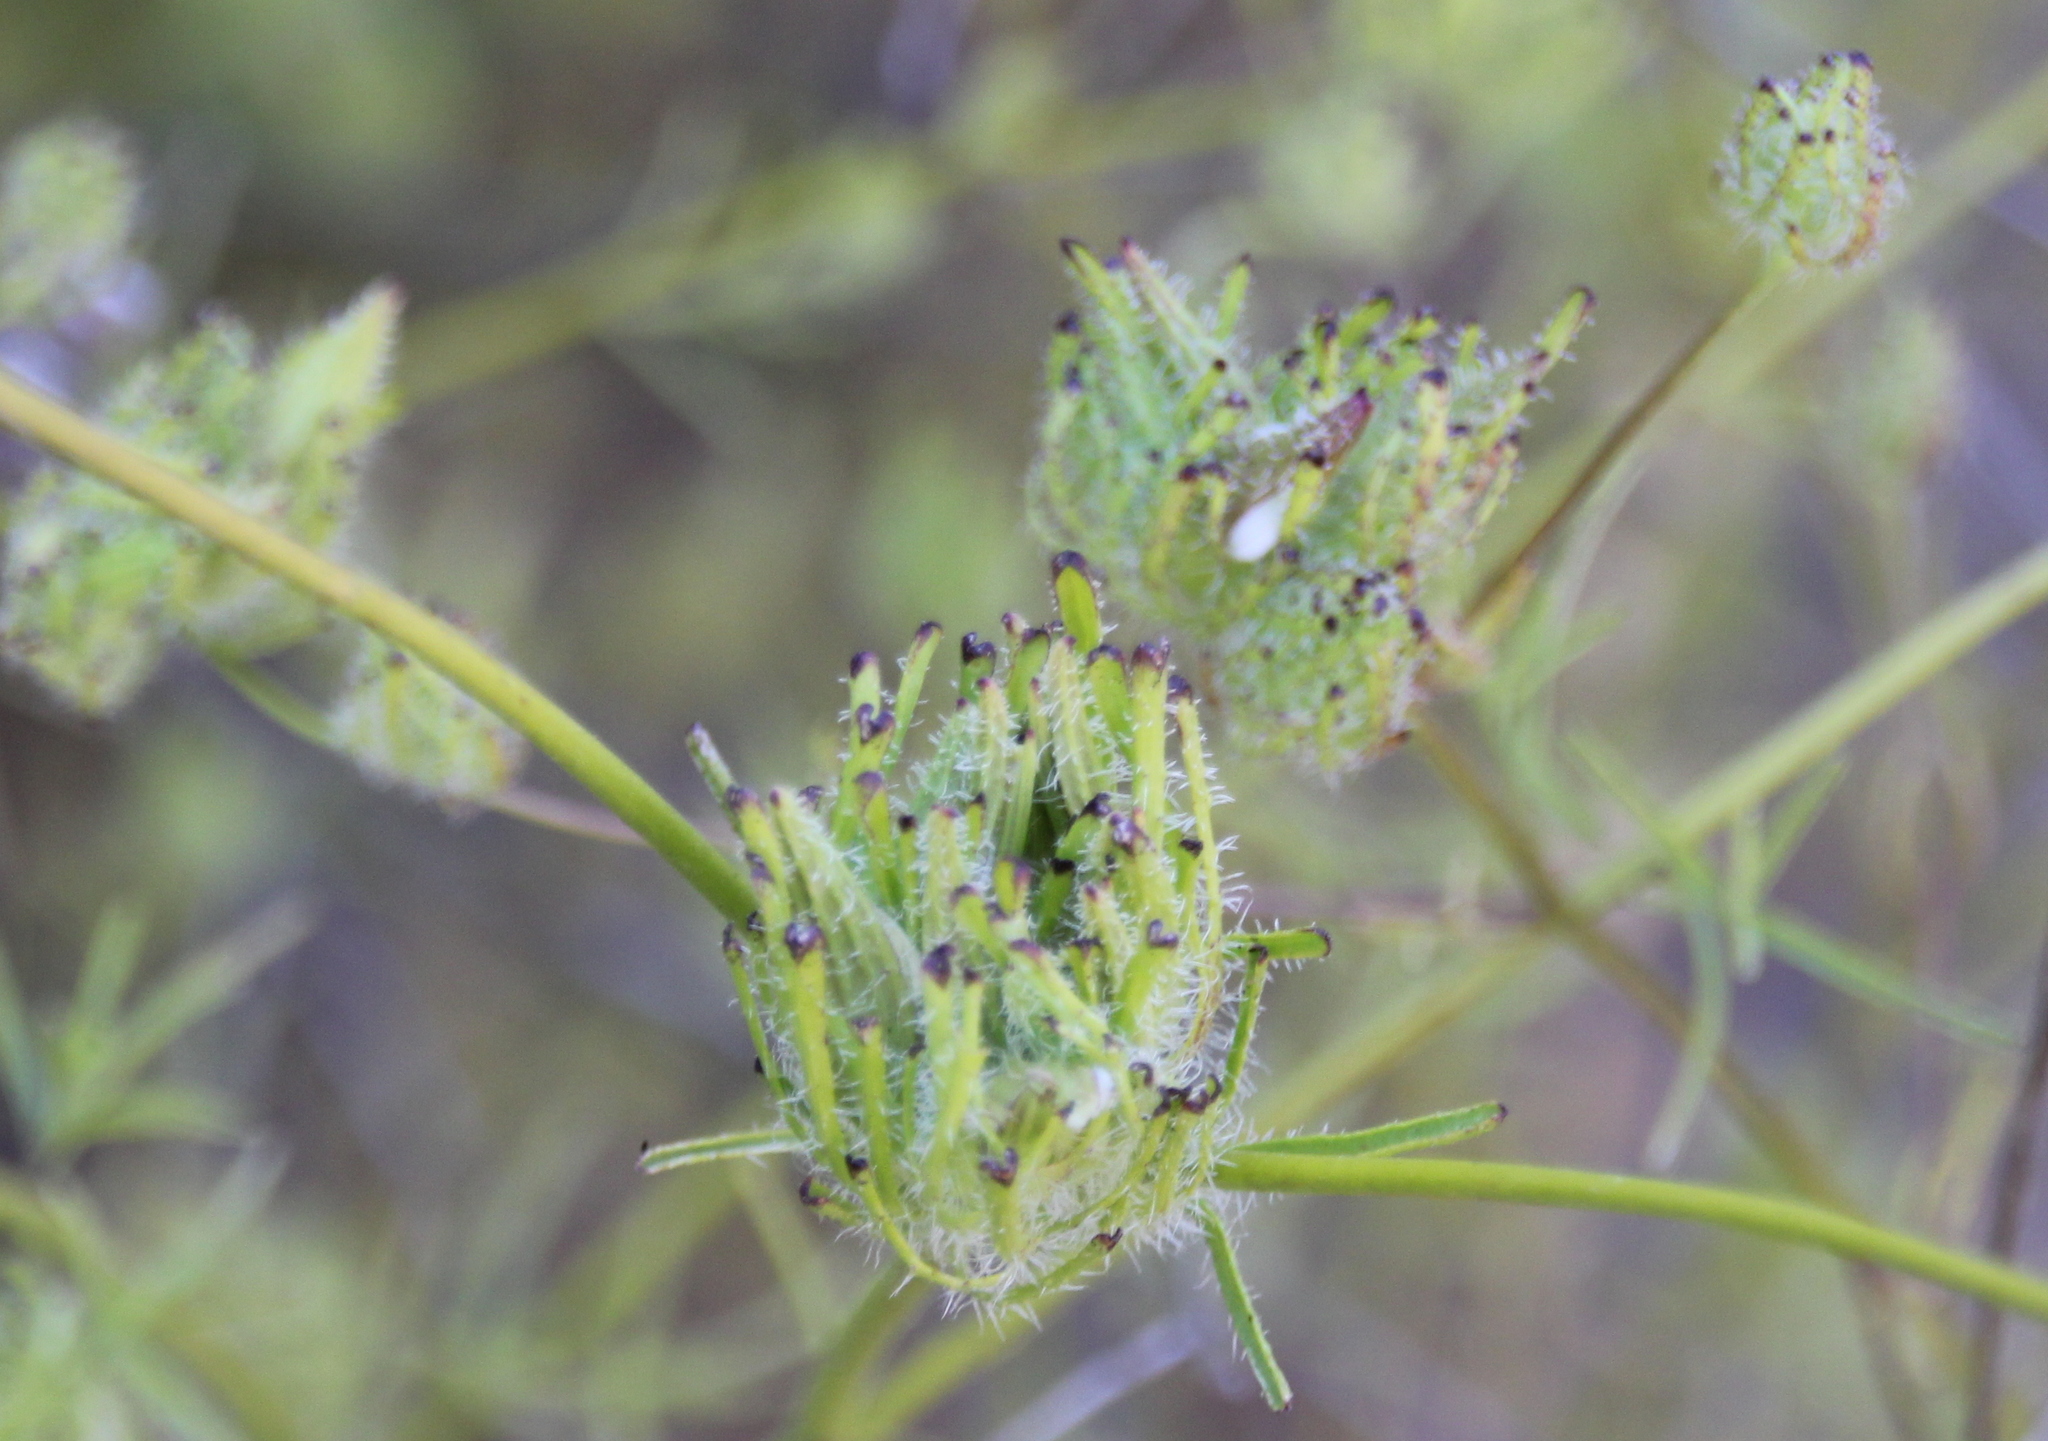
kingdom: Plantae
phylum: Tracheophyta
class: Magnoliopsida
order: Lamiales
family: Orobanchaceae
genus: Cordylanthus
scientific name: Cordylanthus rigidus
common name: Stiff-branch bird's-beak
